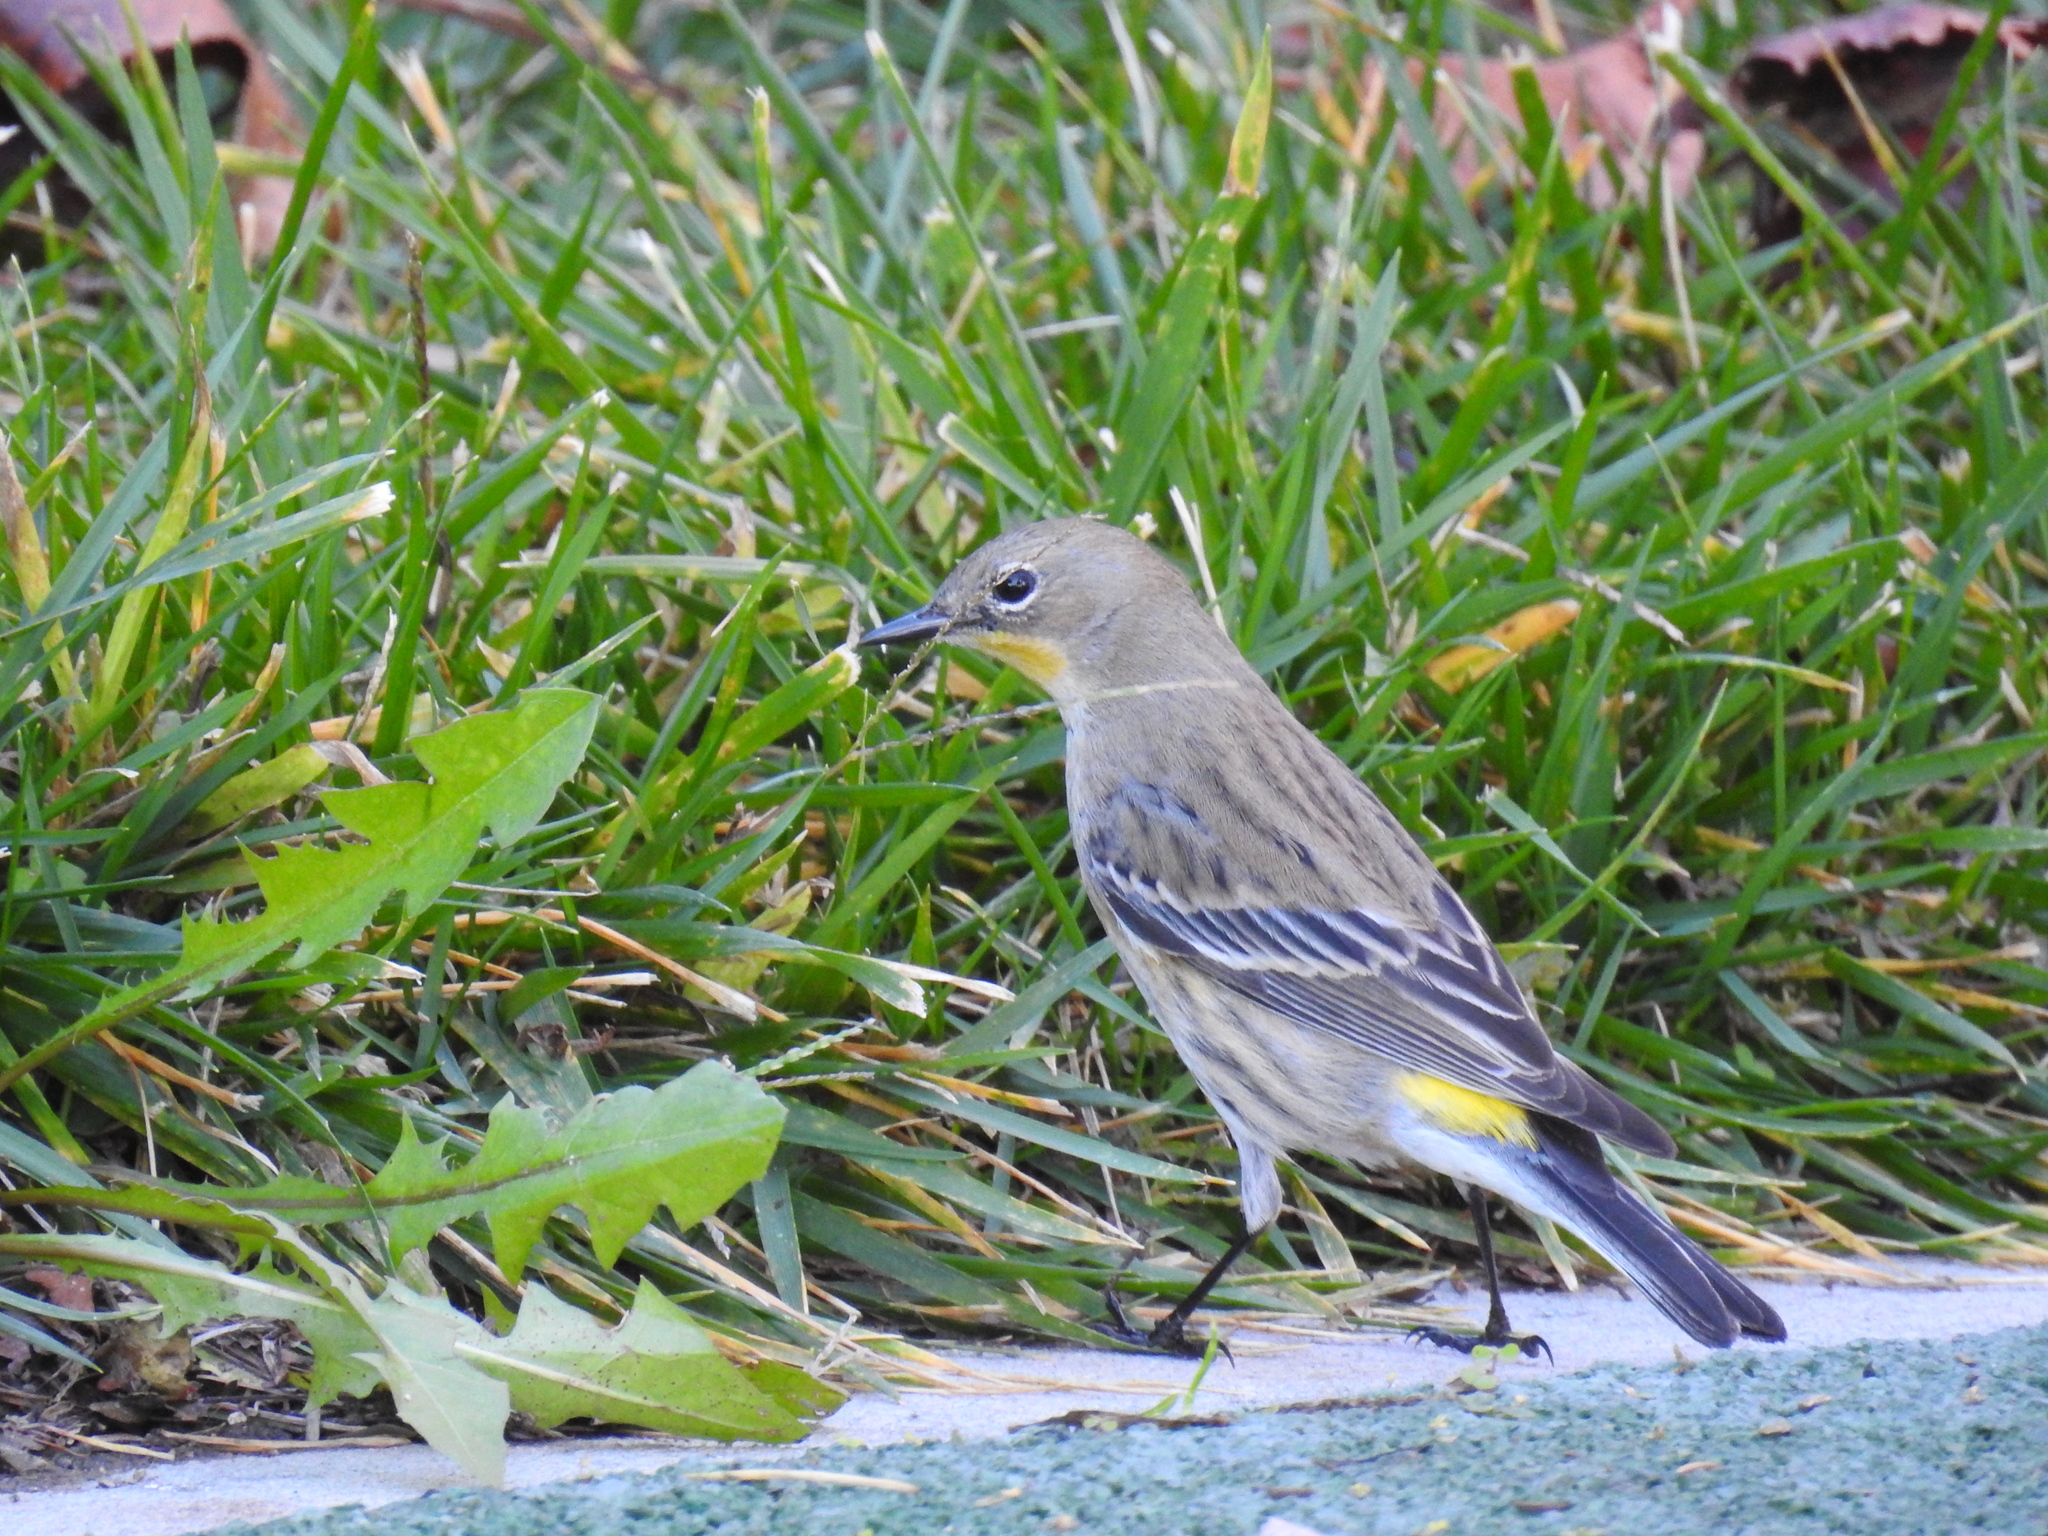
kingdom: Animalia
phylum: Chordata
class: Aves
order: Passeriformes
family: Parulidae
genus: Setophaga
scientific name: Setophaga coronata
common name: Myrtle warbler
